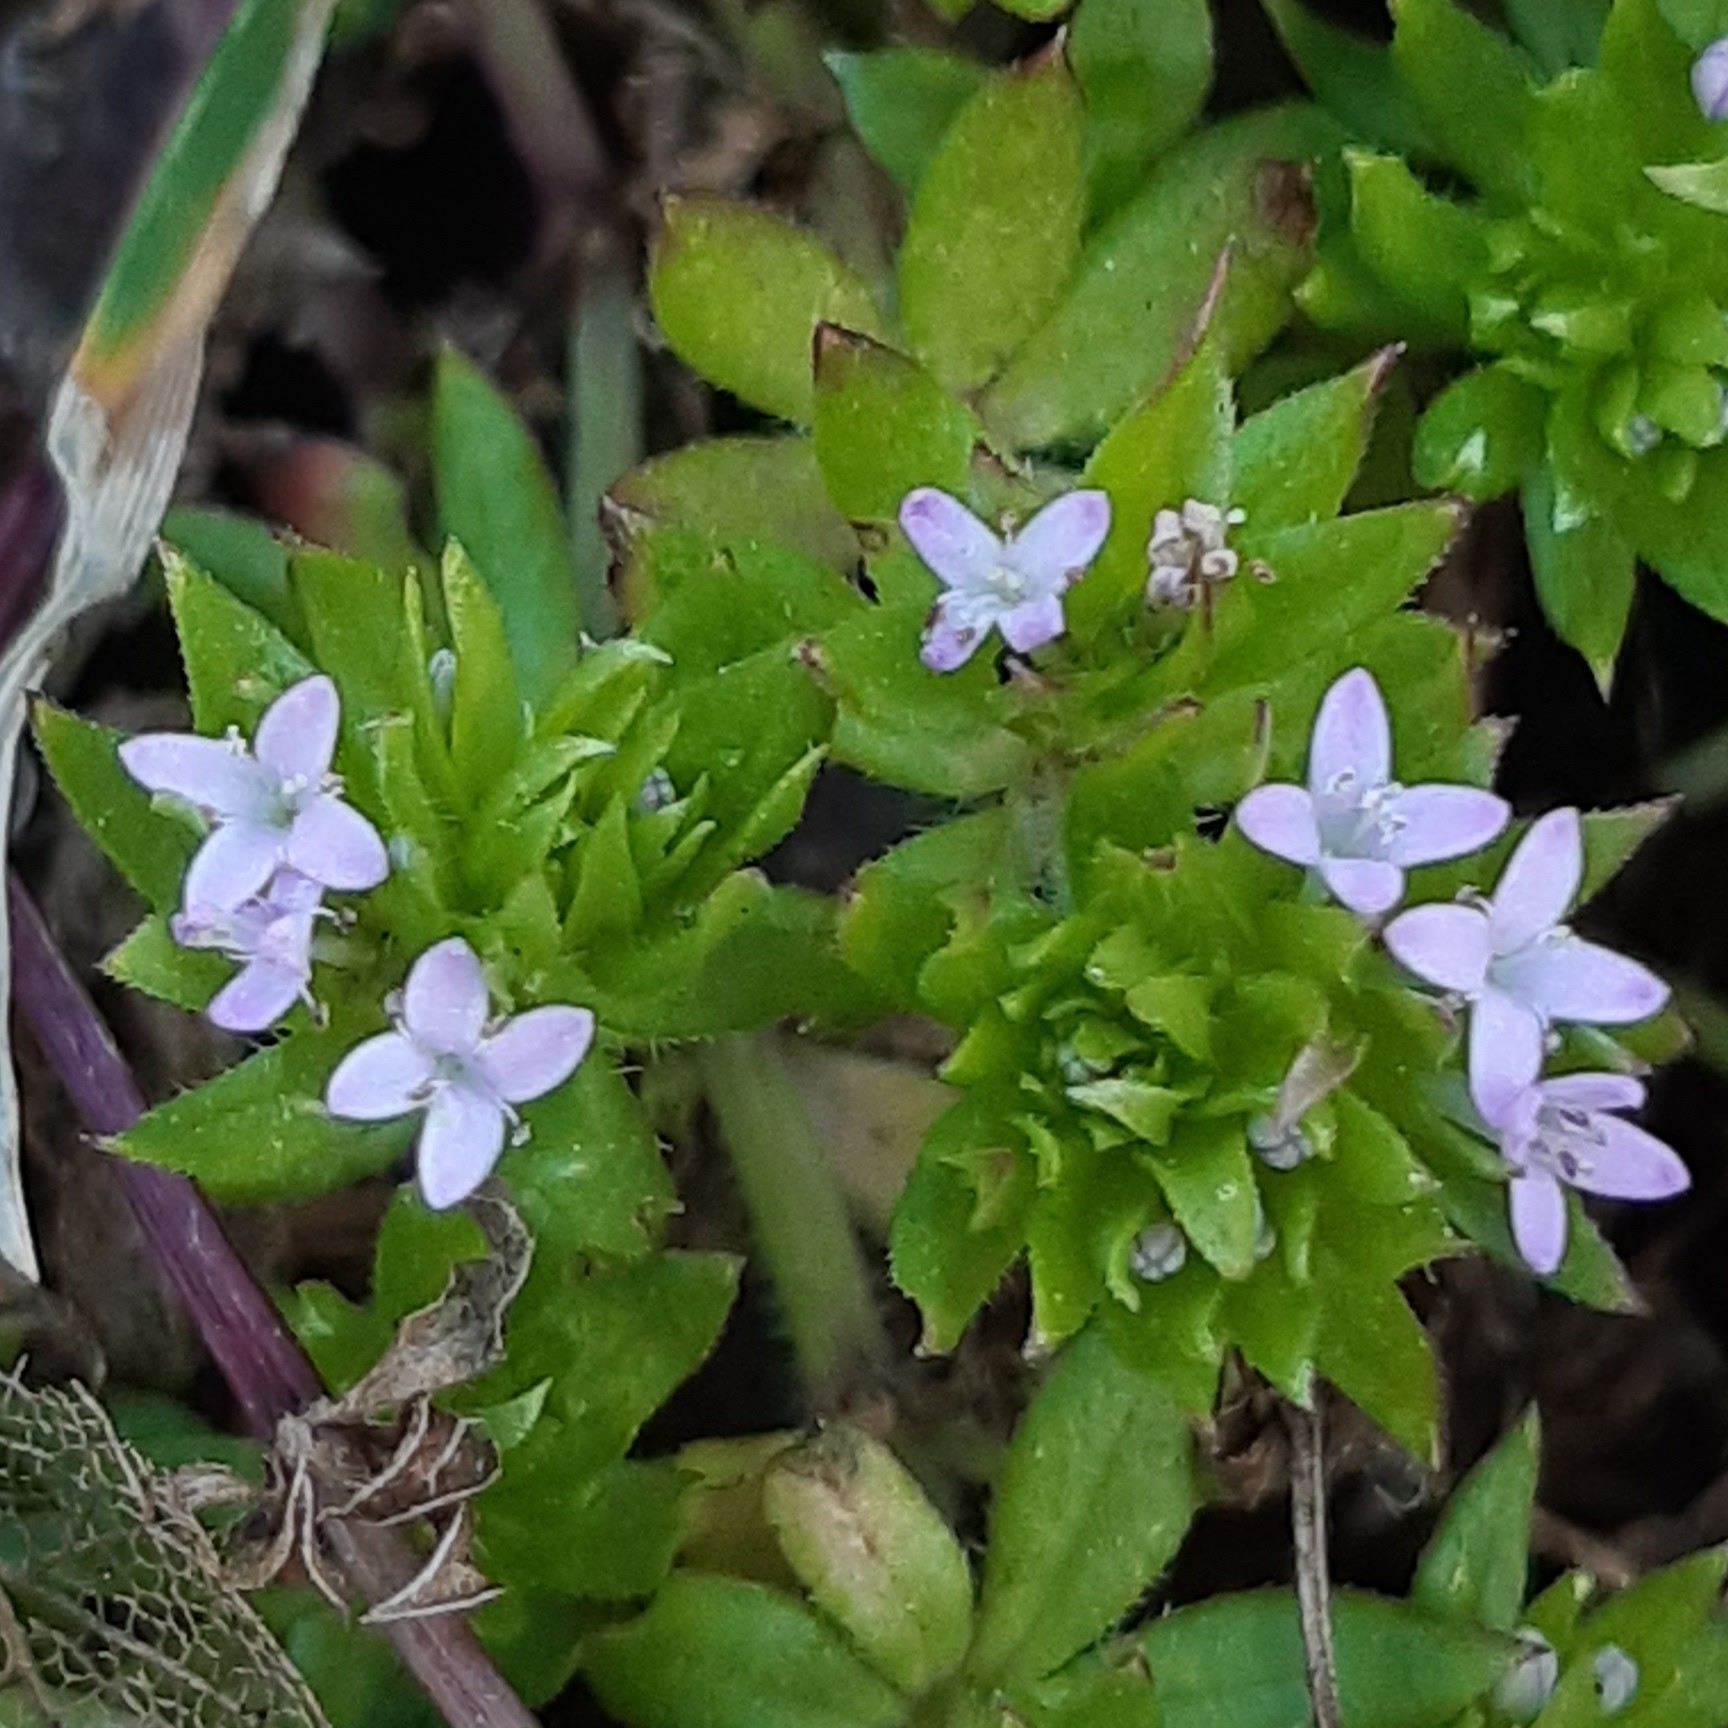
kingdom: Plantae
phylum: Tracheophyta
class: Magnoliopsida
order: Gentianales
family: Rubiaceae
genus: Sherardia
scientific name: Sherardia arvensis
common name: Field madder
